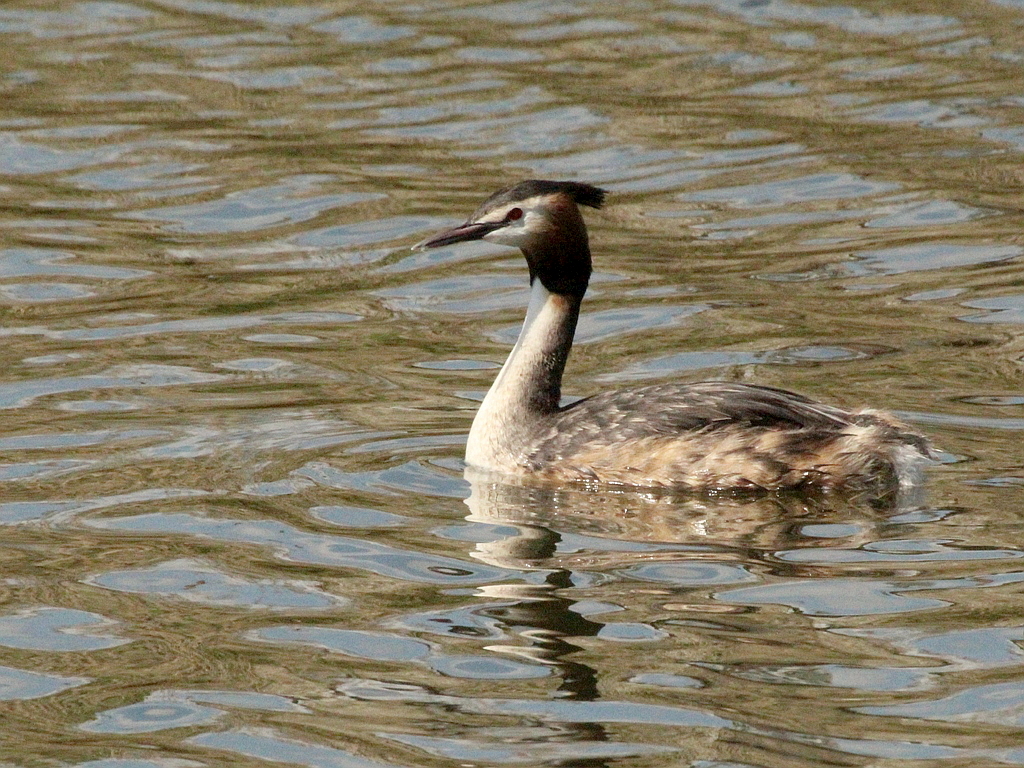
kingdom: Animalia
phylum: Chordata
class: Aves
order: Podicipediformes
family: Podicipedidae
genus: Podiceps
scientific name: Podiceps cristatus
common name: Great crested grebe
